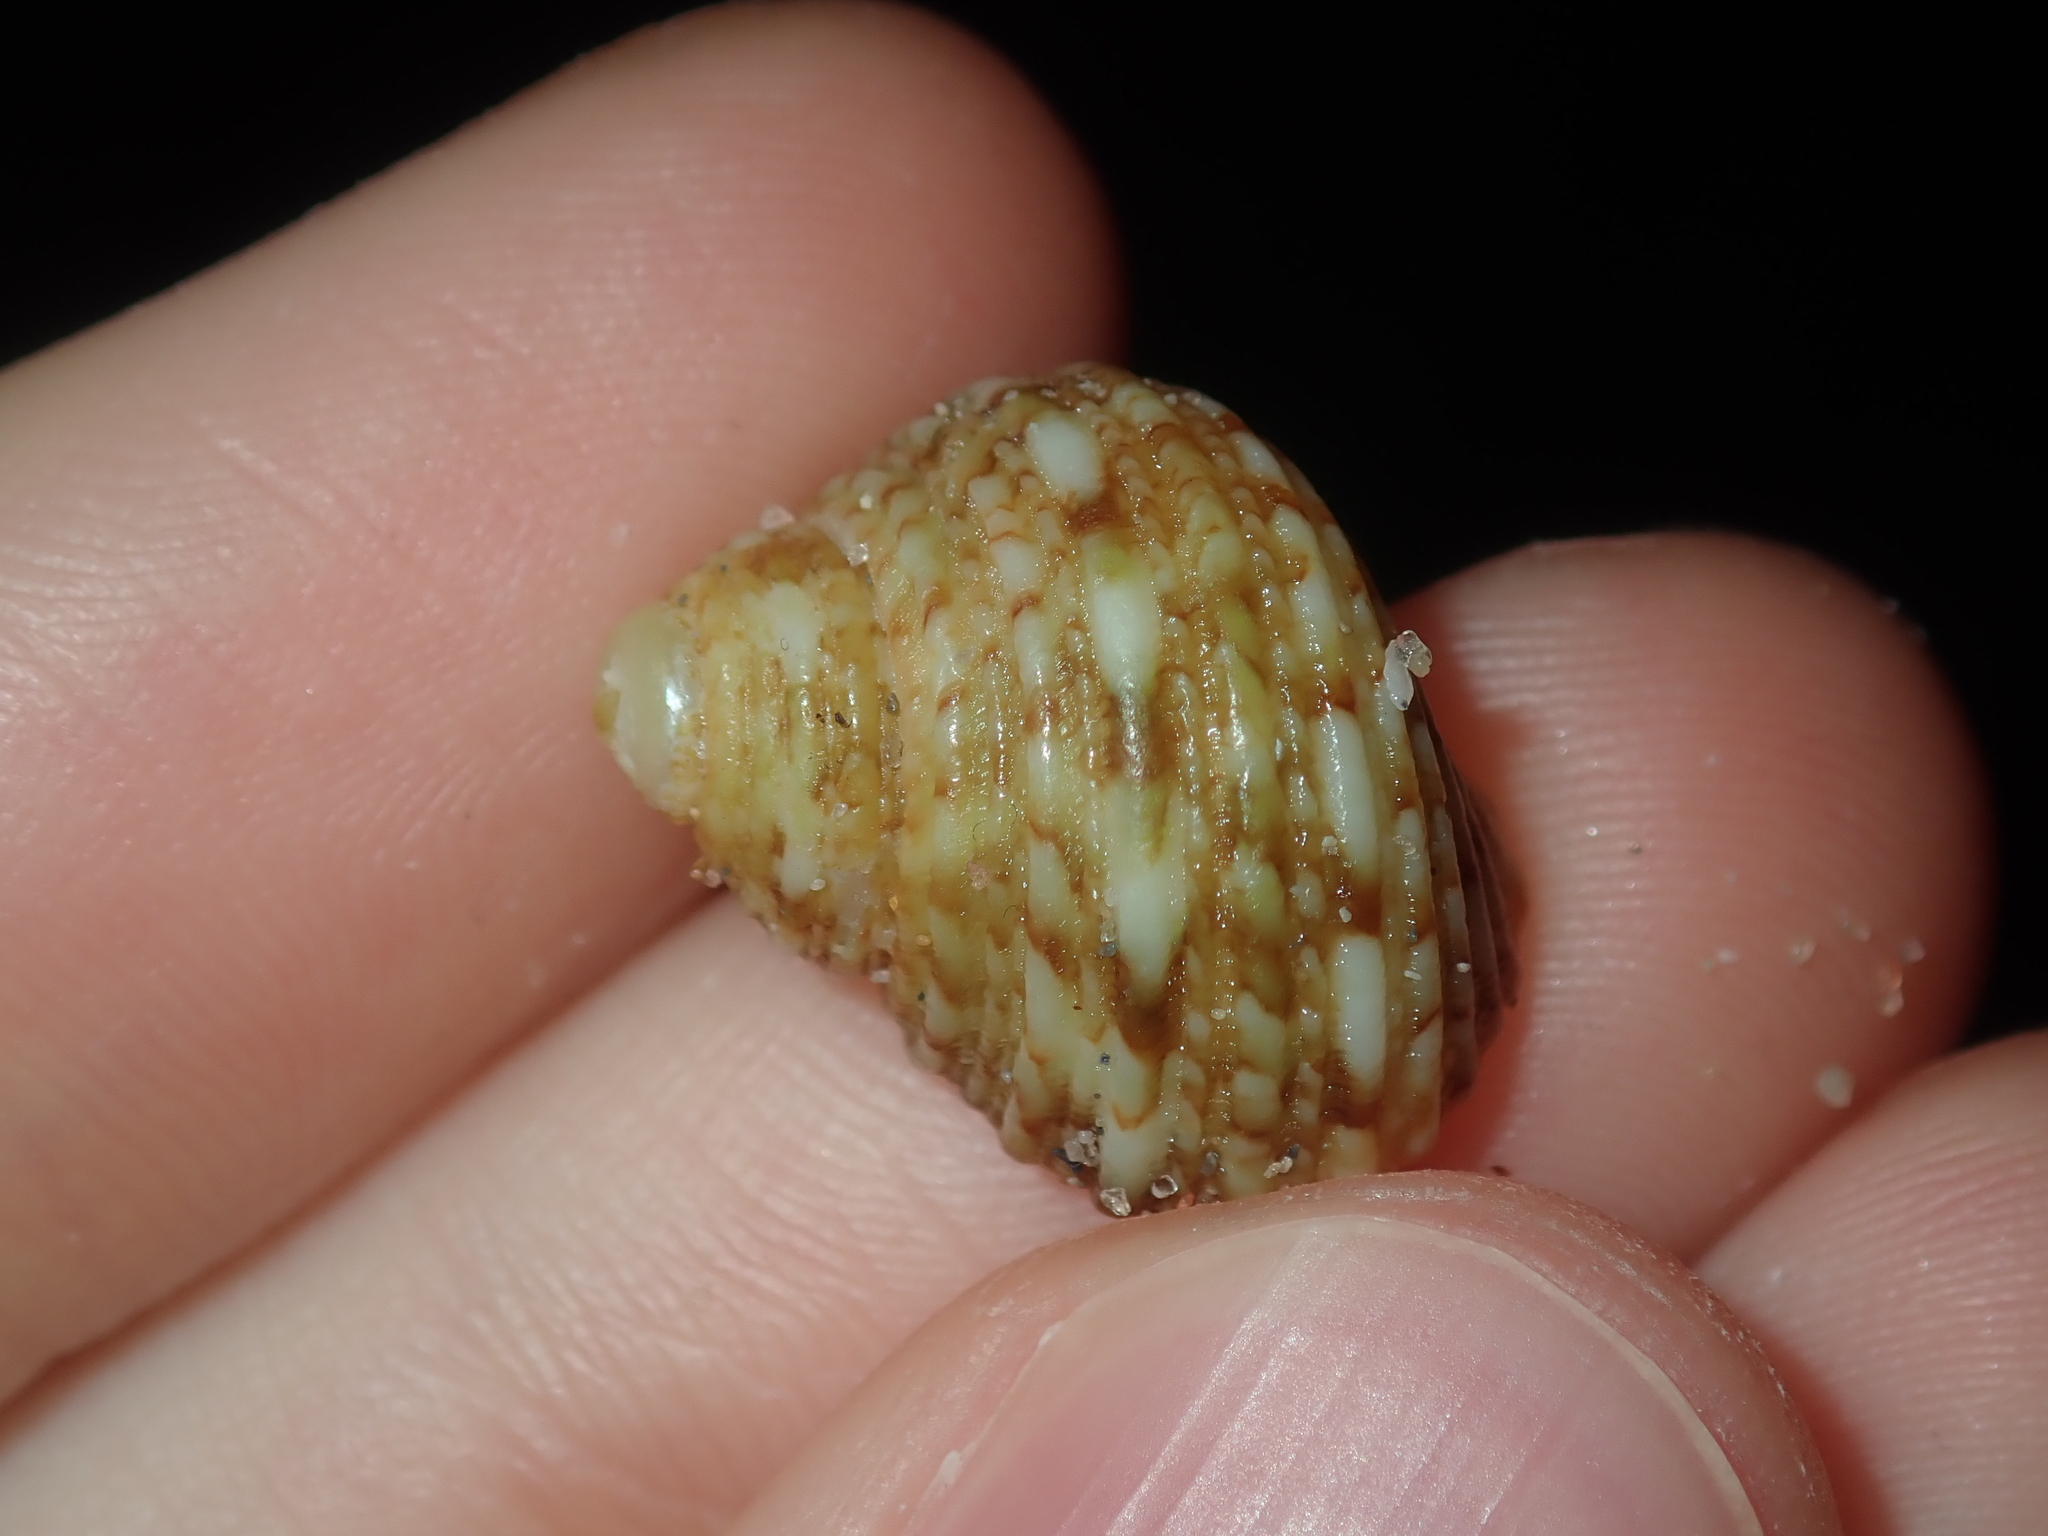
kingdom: Animalia
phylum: Mollusca
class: Gastropoda
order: Trochida
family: Turbinidae
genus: Turbo
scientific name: Turbo kenwilliamsi
